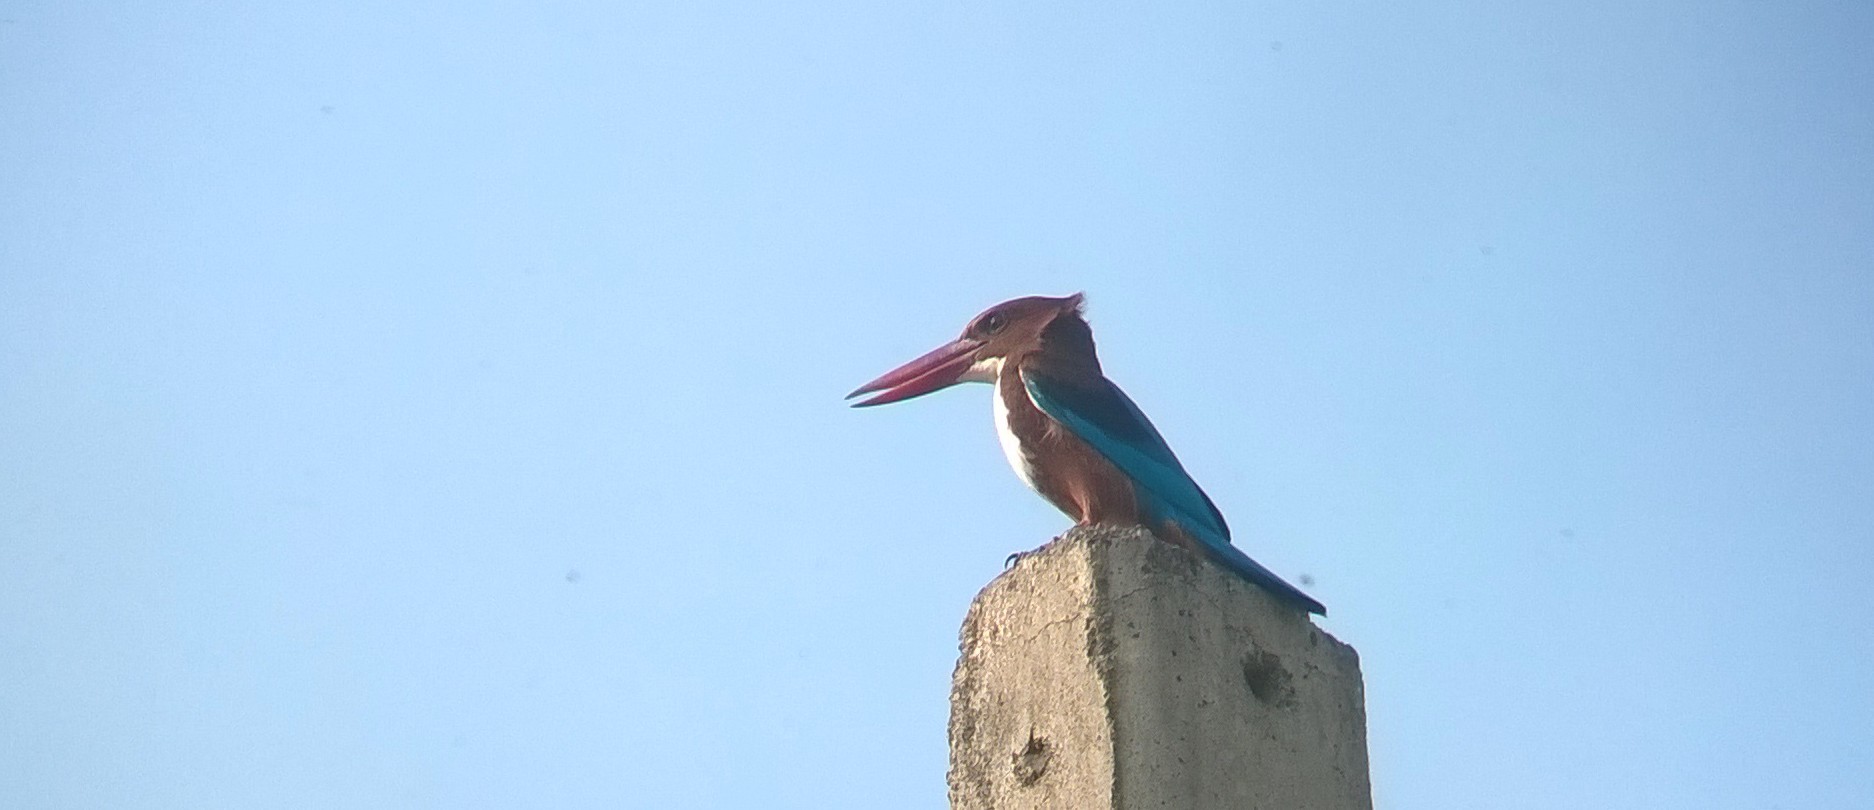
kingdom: Animalia
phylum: Chordata
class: Aves
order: Coraciiformes
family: Alcedinidae
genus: Halcyon
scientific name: Halcyon smyrnensis
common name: White-throated kingfisher
